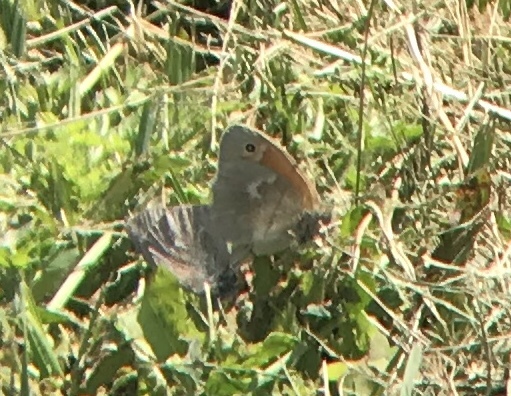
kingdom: Animalia
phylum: Arthropoda
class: Insecta
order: Lepidoptera
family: Nymphalidae
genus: Coenonympha
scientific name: Coenonympha california
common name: Common ringlet
